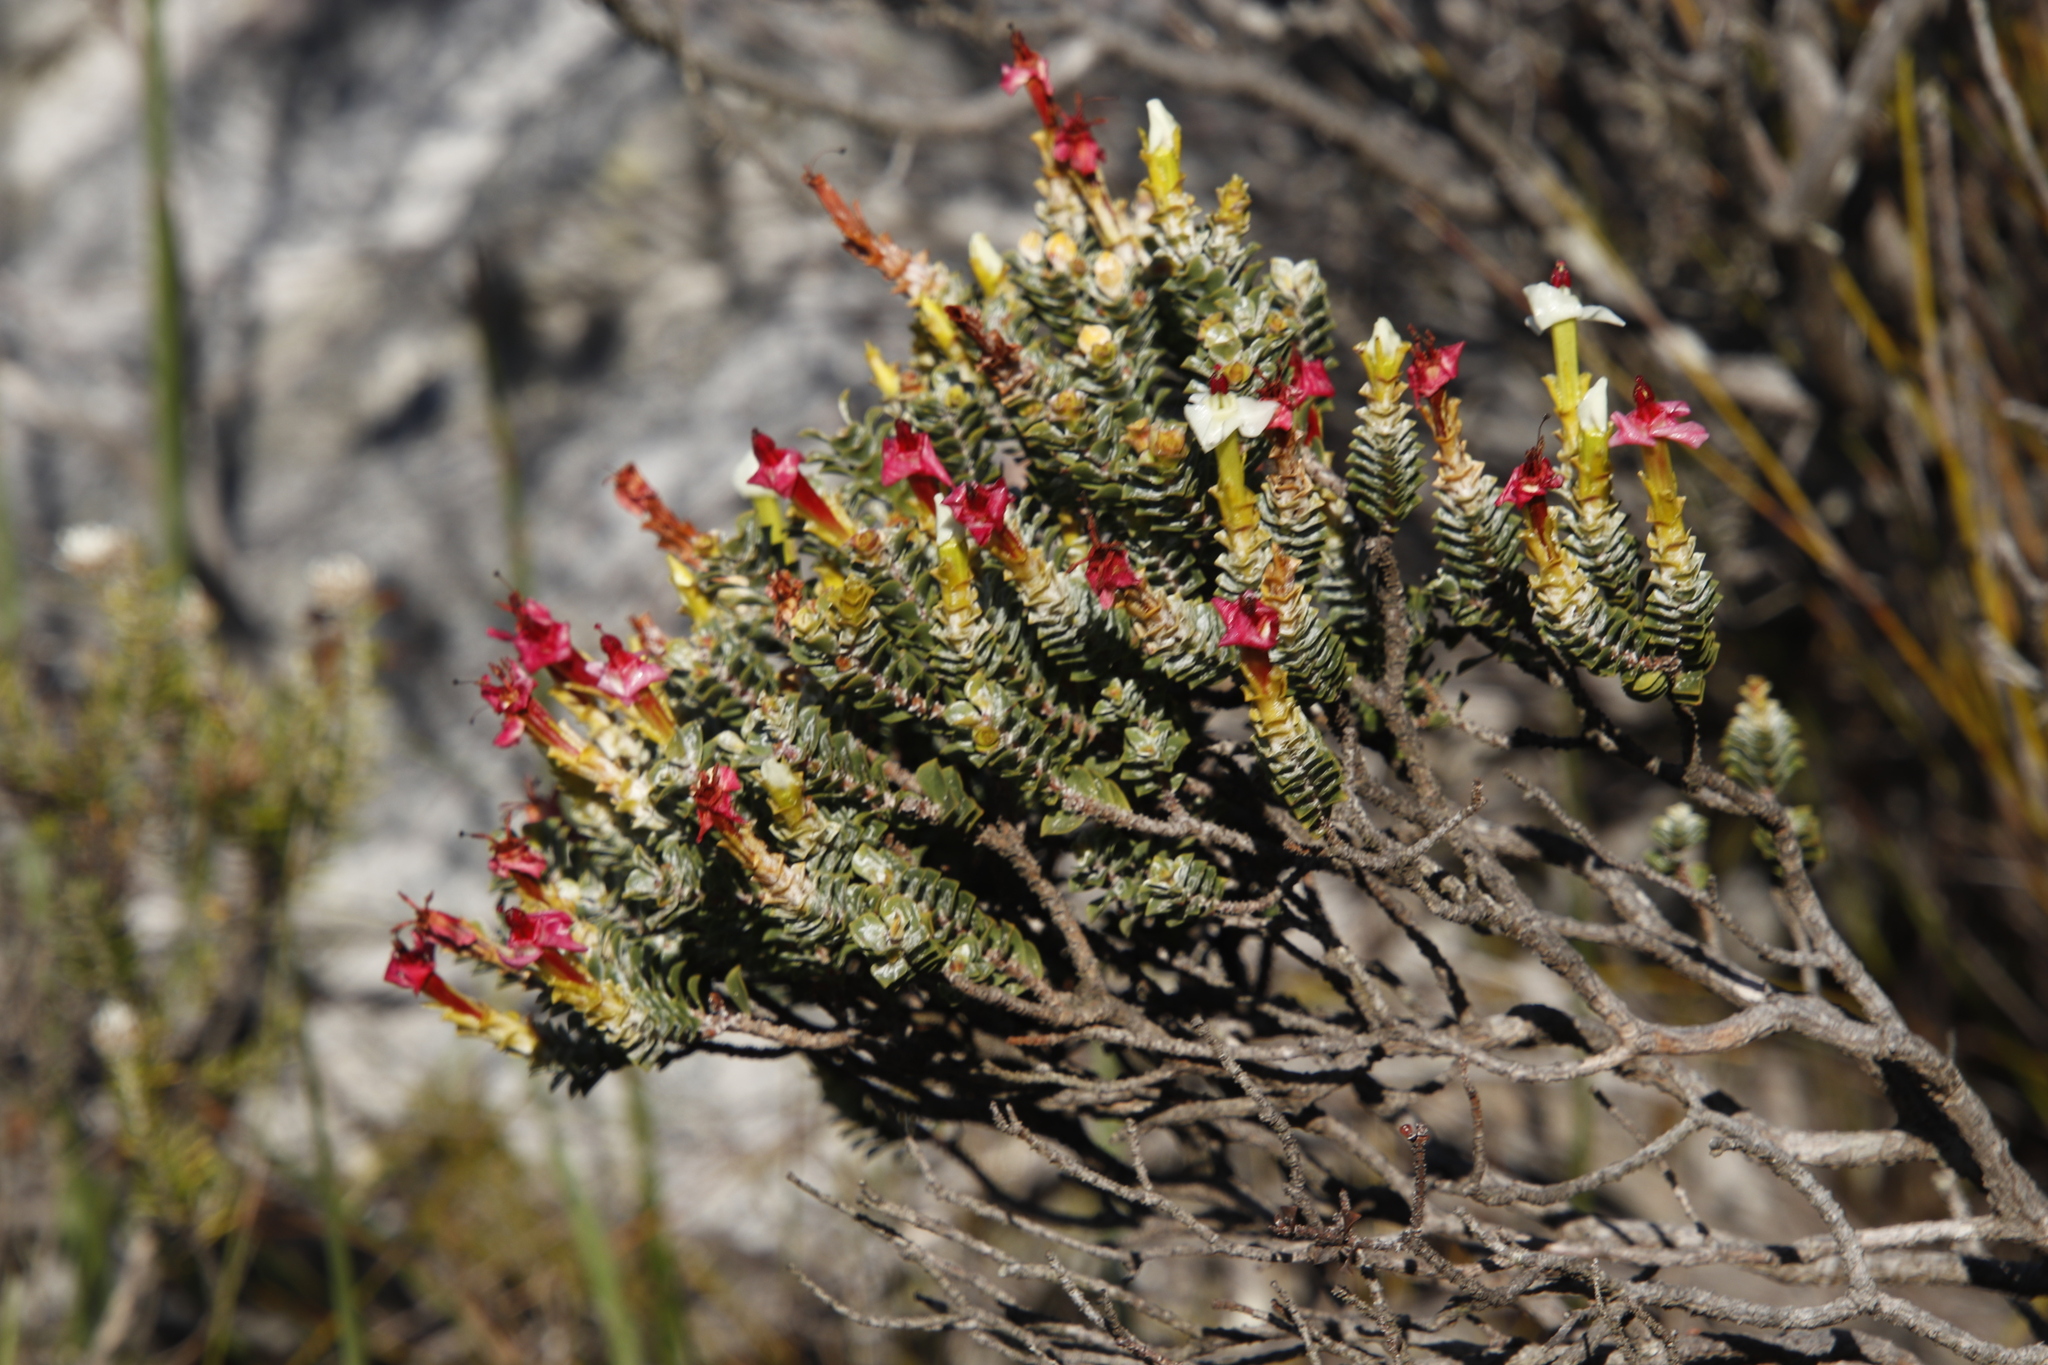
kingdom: Plantae
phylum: Tracheophyta
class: Magnoliopsida
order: Myrtales
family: Penaeaceae
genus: Saltera
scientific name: Saltera sarcocolla
